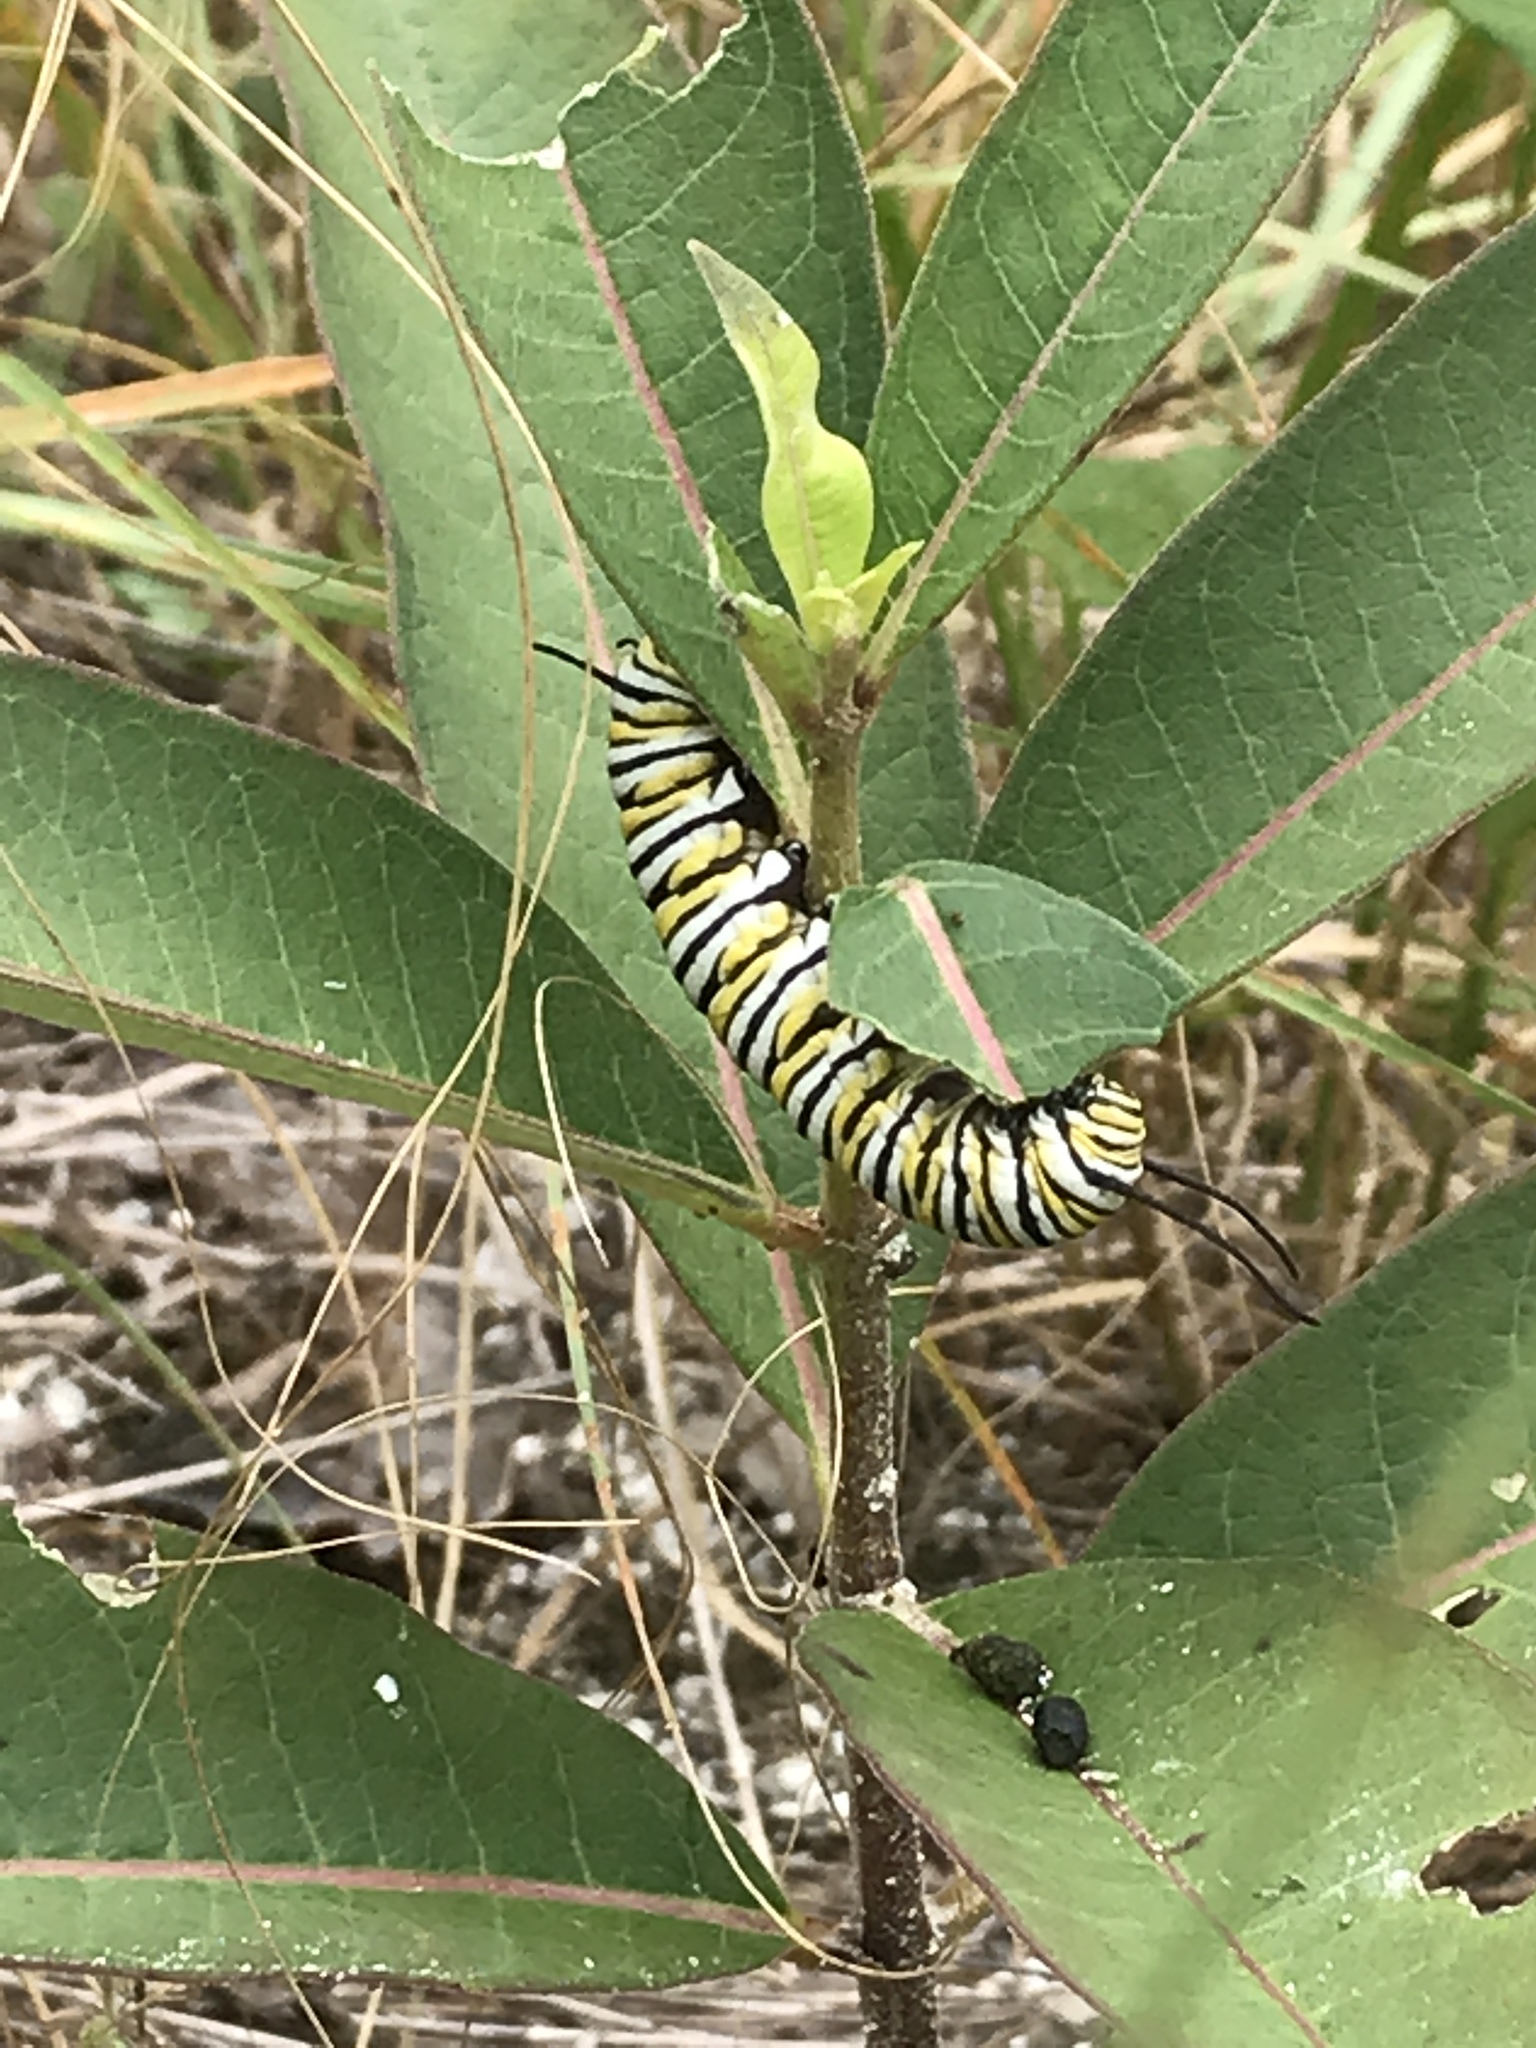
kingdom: Animalia
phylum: Arthropoda
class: Insecta
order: Lepidoptera
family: Nymphalidae
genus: Danaus
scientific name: Danaus plexippus
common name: Monarch
